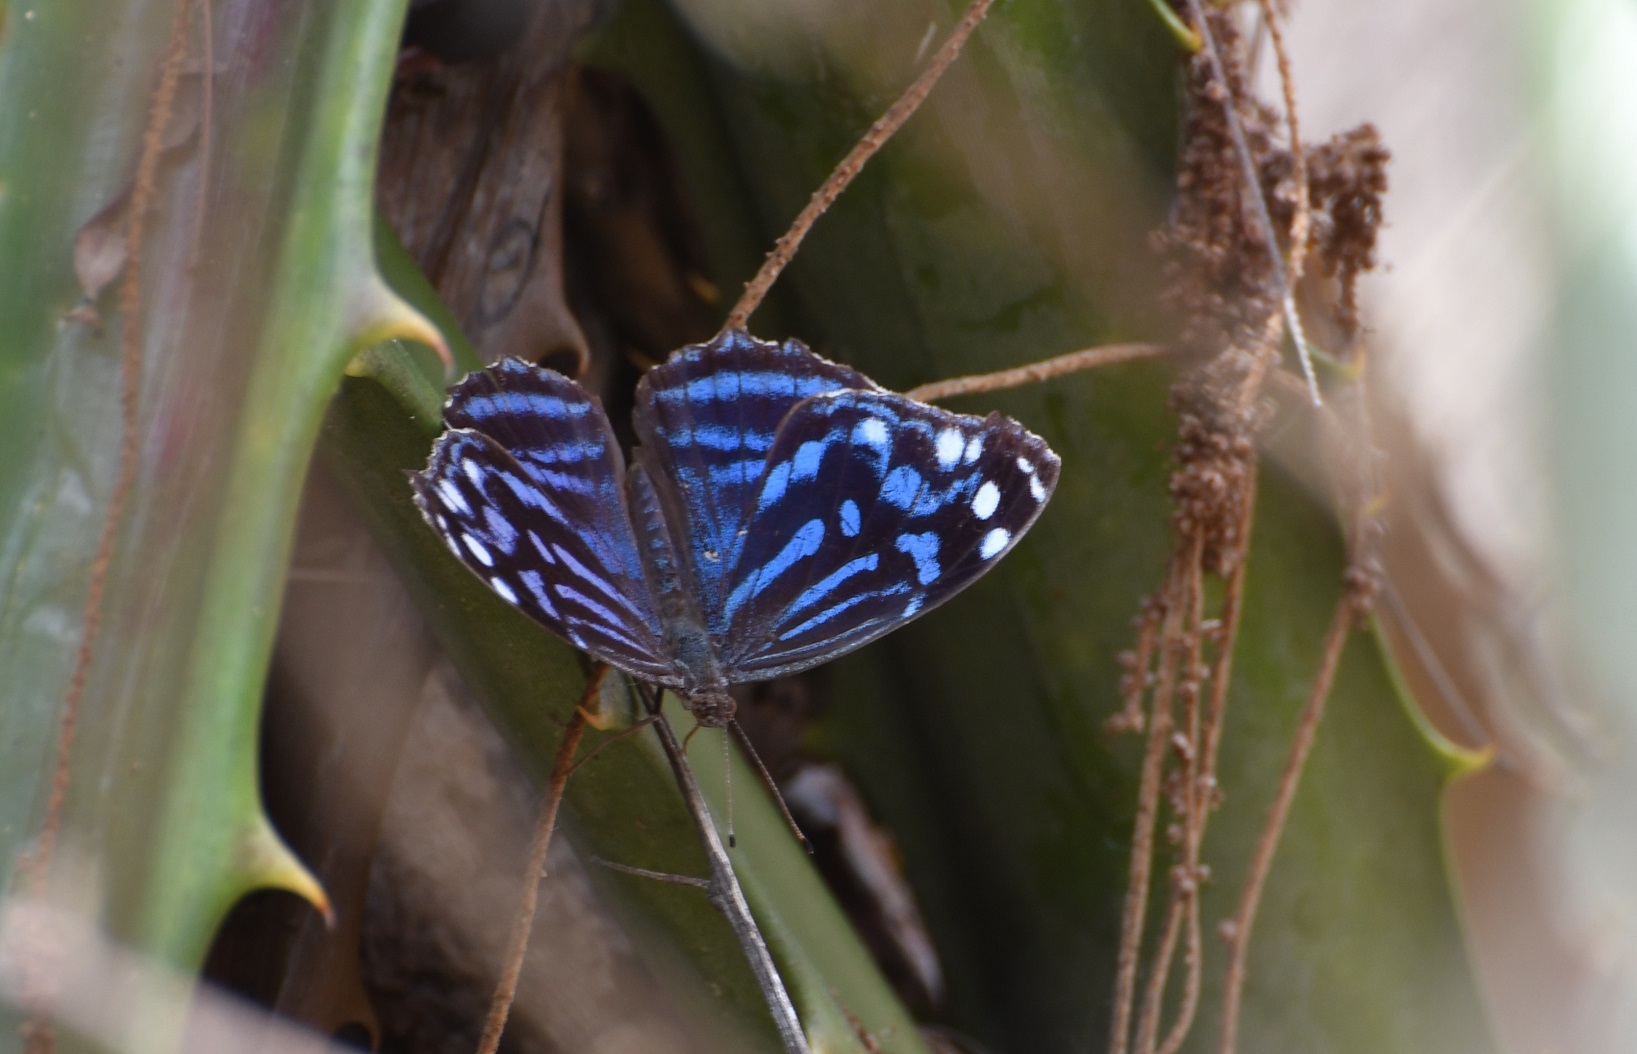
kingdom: Animalia
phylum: Arthropoda
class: Insecta
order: Lepidoptera
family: Nymphalidae
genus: Myscelia
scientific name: Myscelia ethusa
